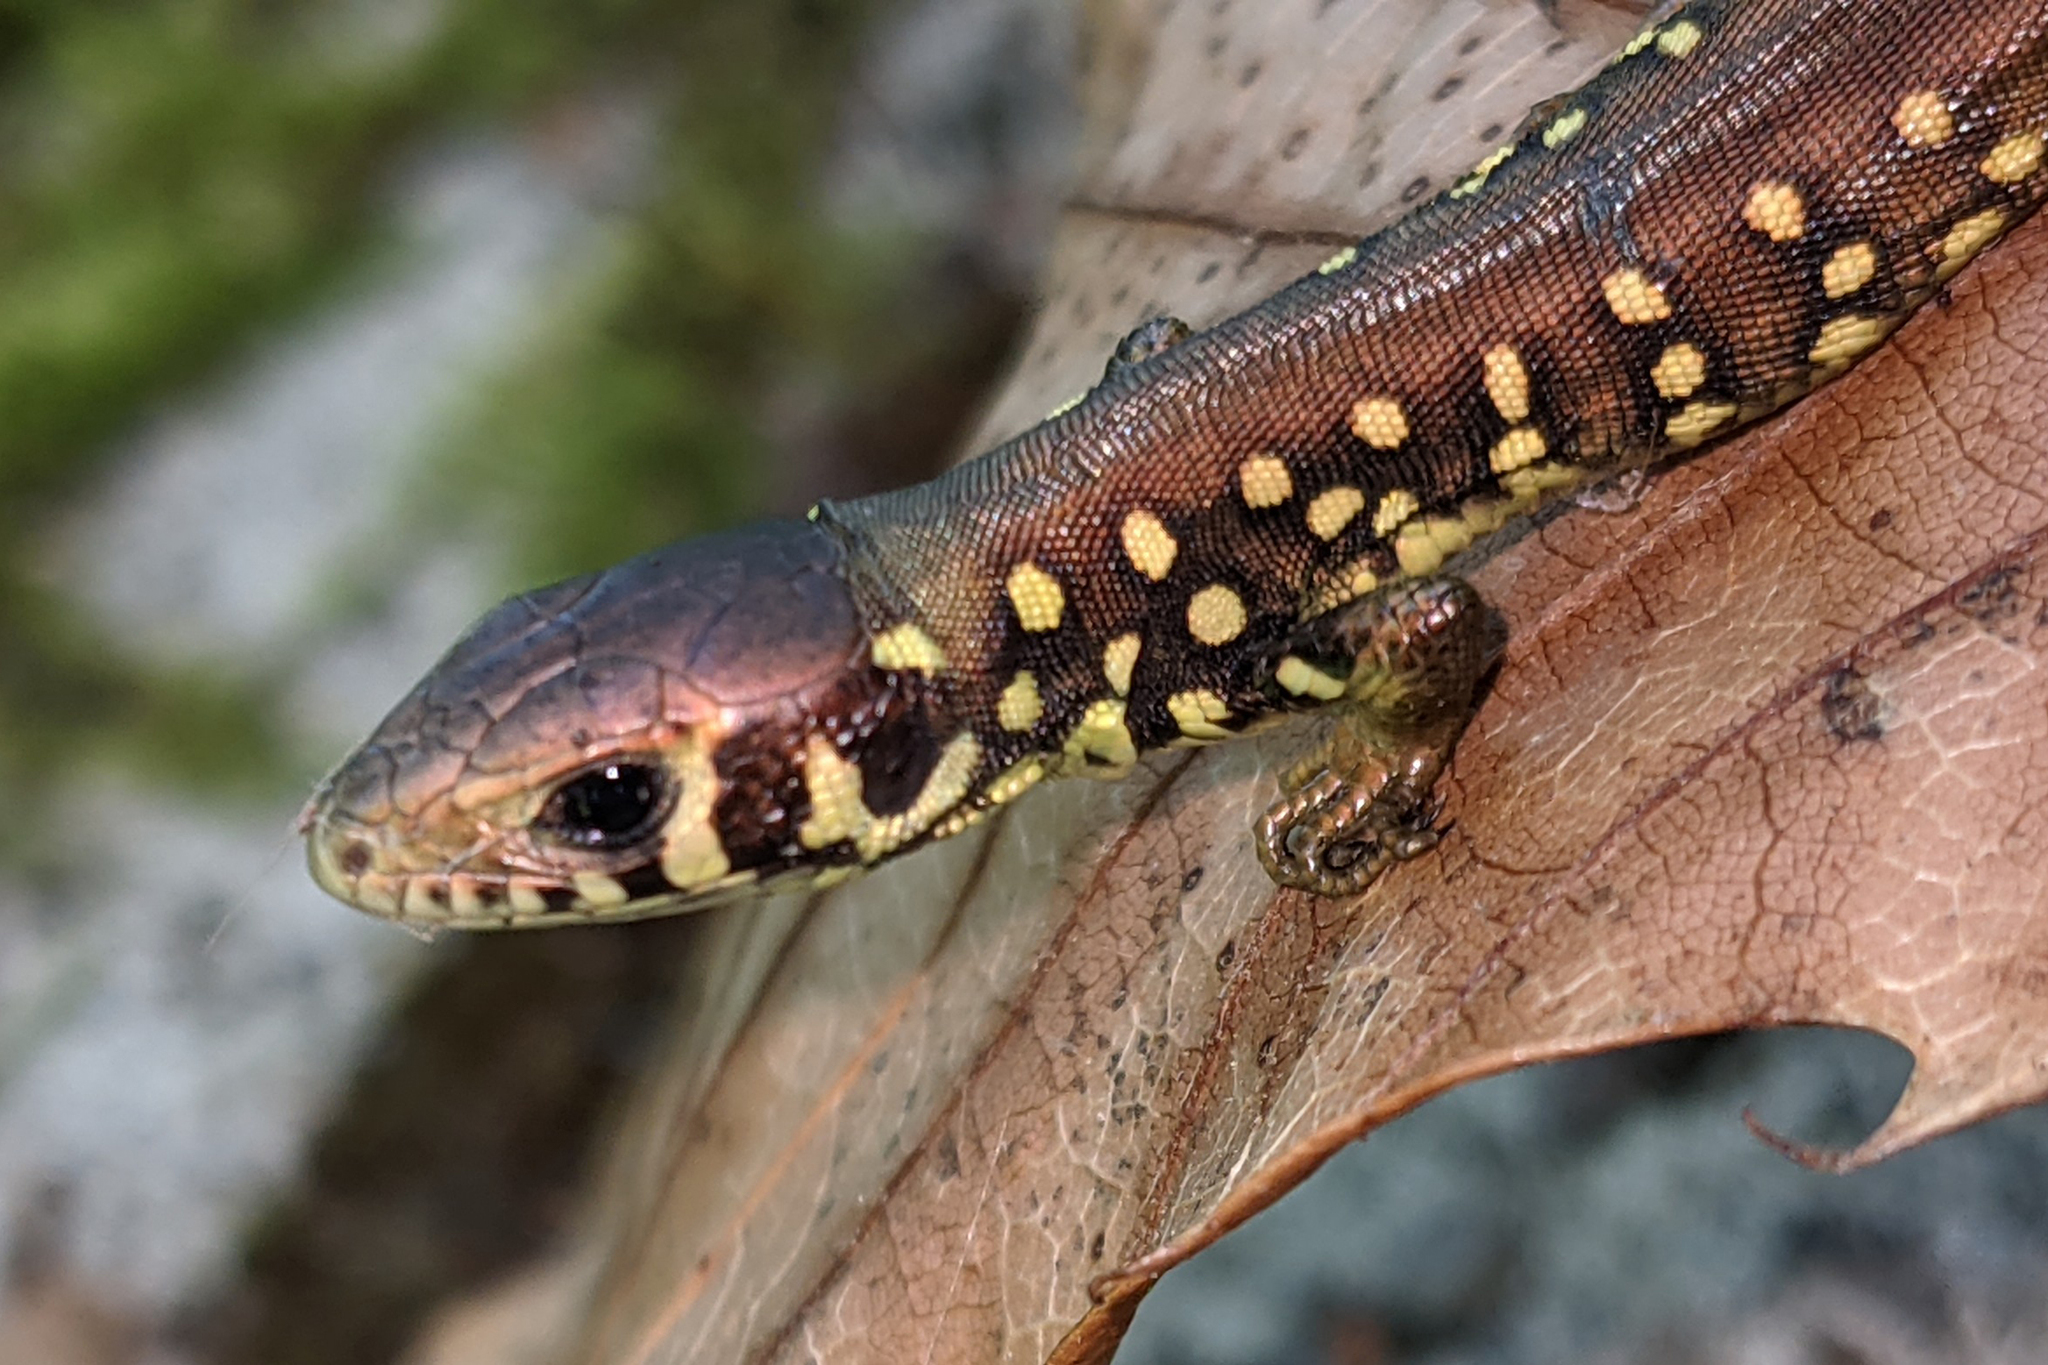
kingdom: Animalia
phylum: Chordata
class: Squamata
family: Lacertidae
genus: Lacerta
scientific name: Lacerta schreiberi
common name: Iberian emerald lizard
